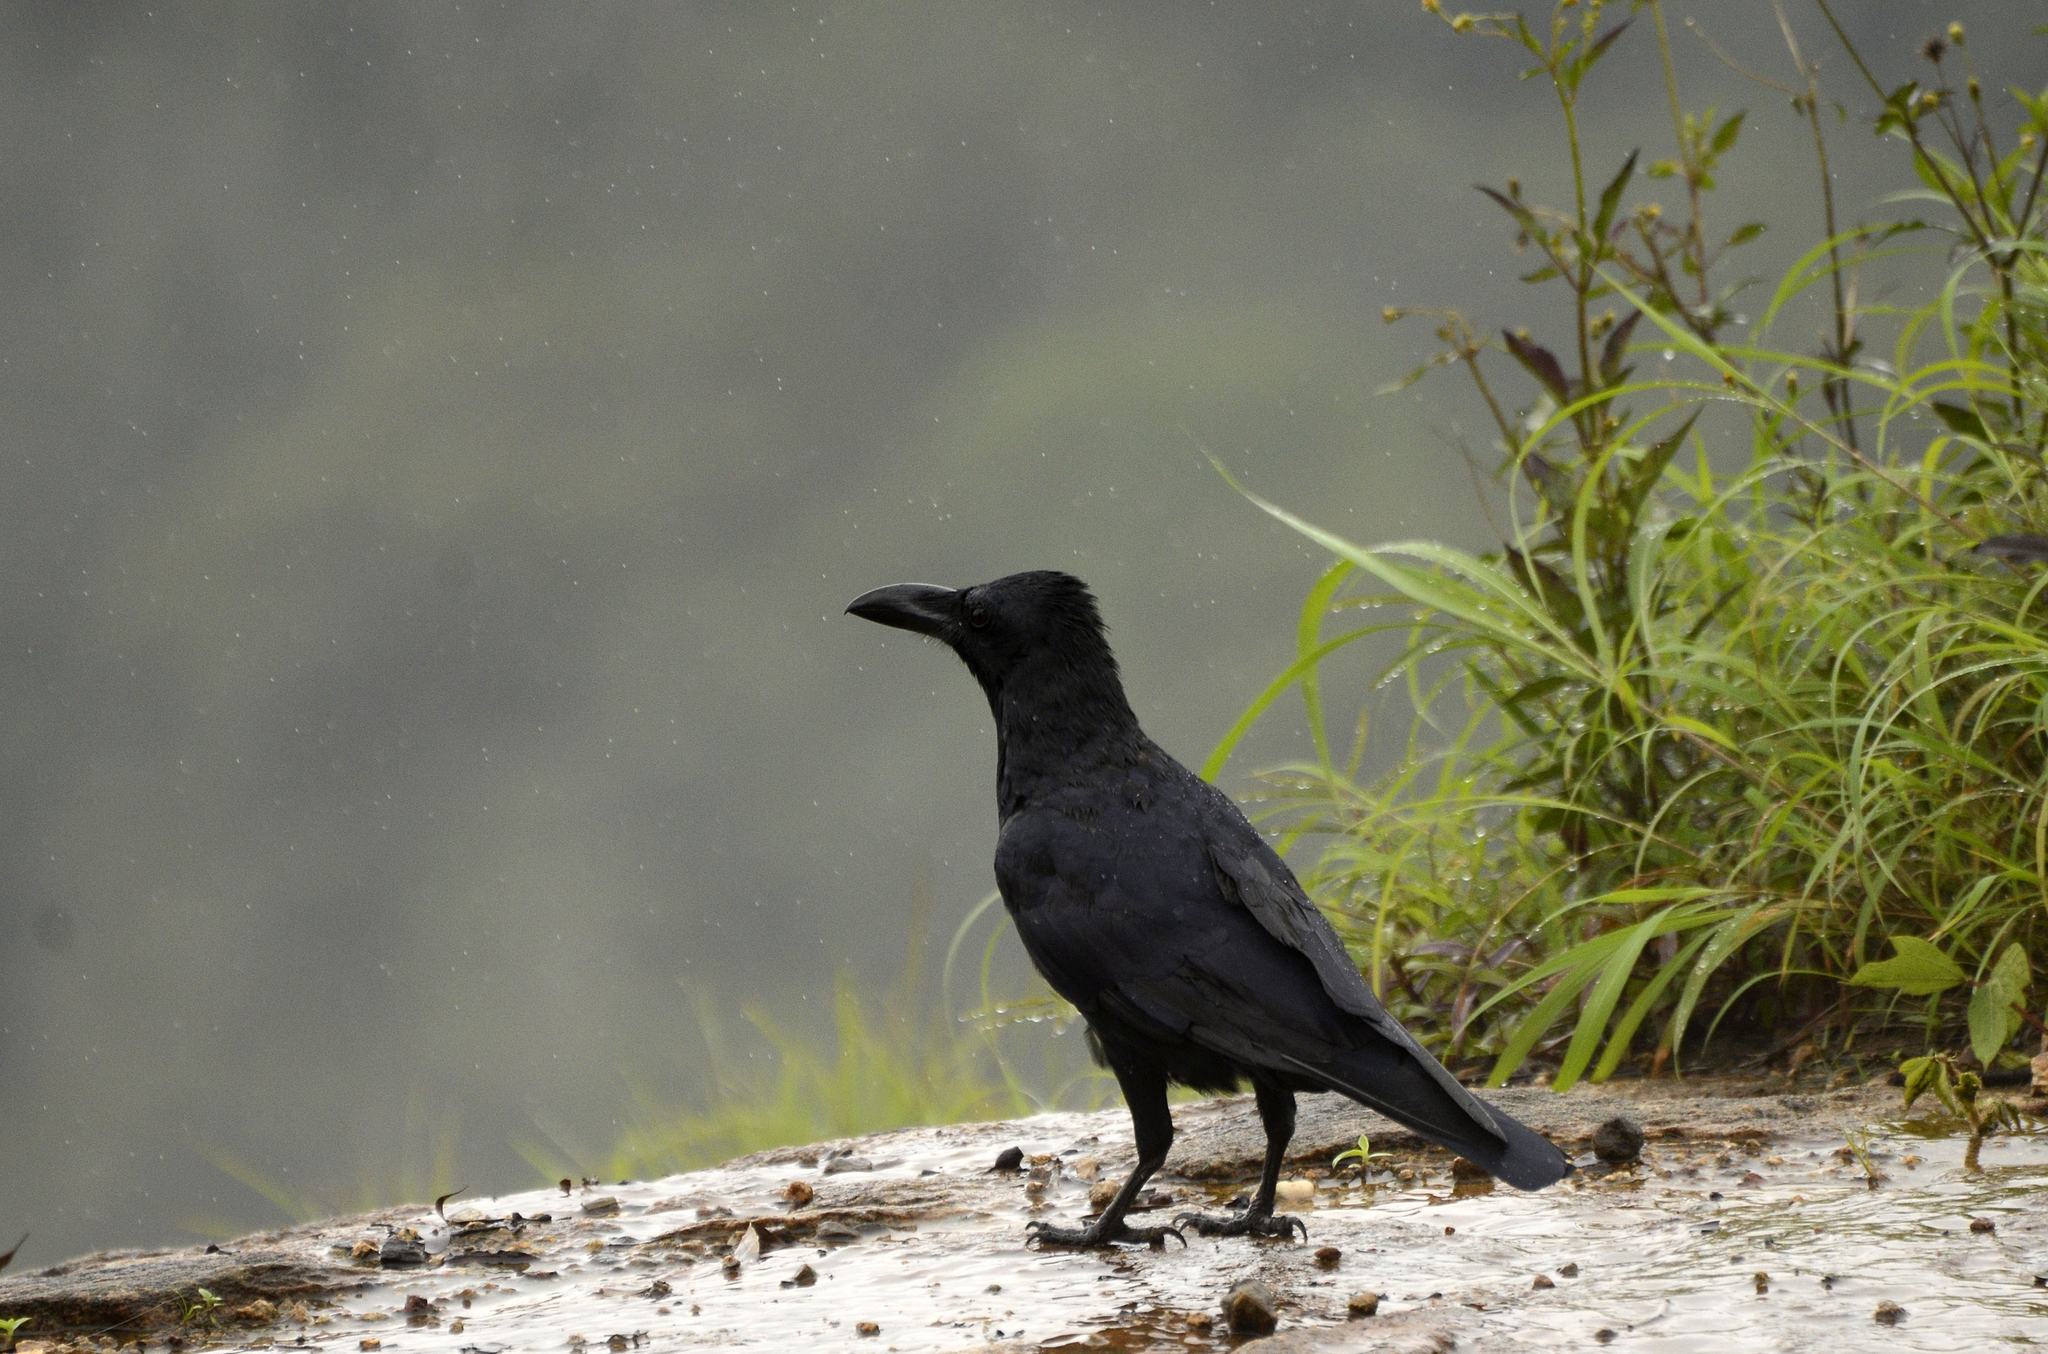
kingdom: Animalia
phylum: Chordata
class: Aves
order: Passeriformes
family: Corvidae
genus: Corvus
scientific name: Corvus macrorhynchos
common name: Large-billed crow
